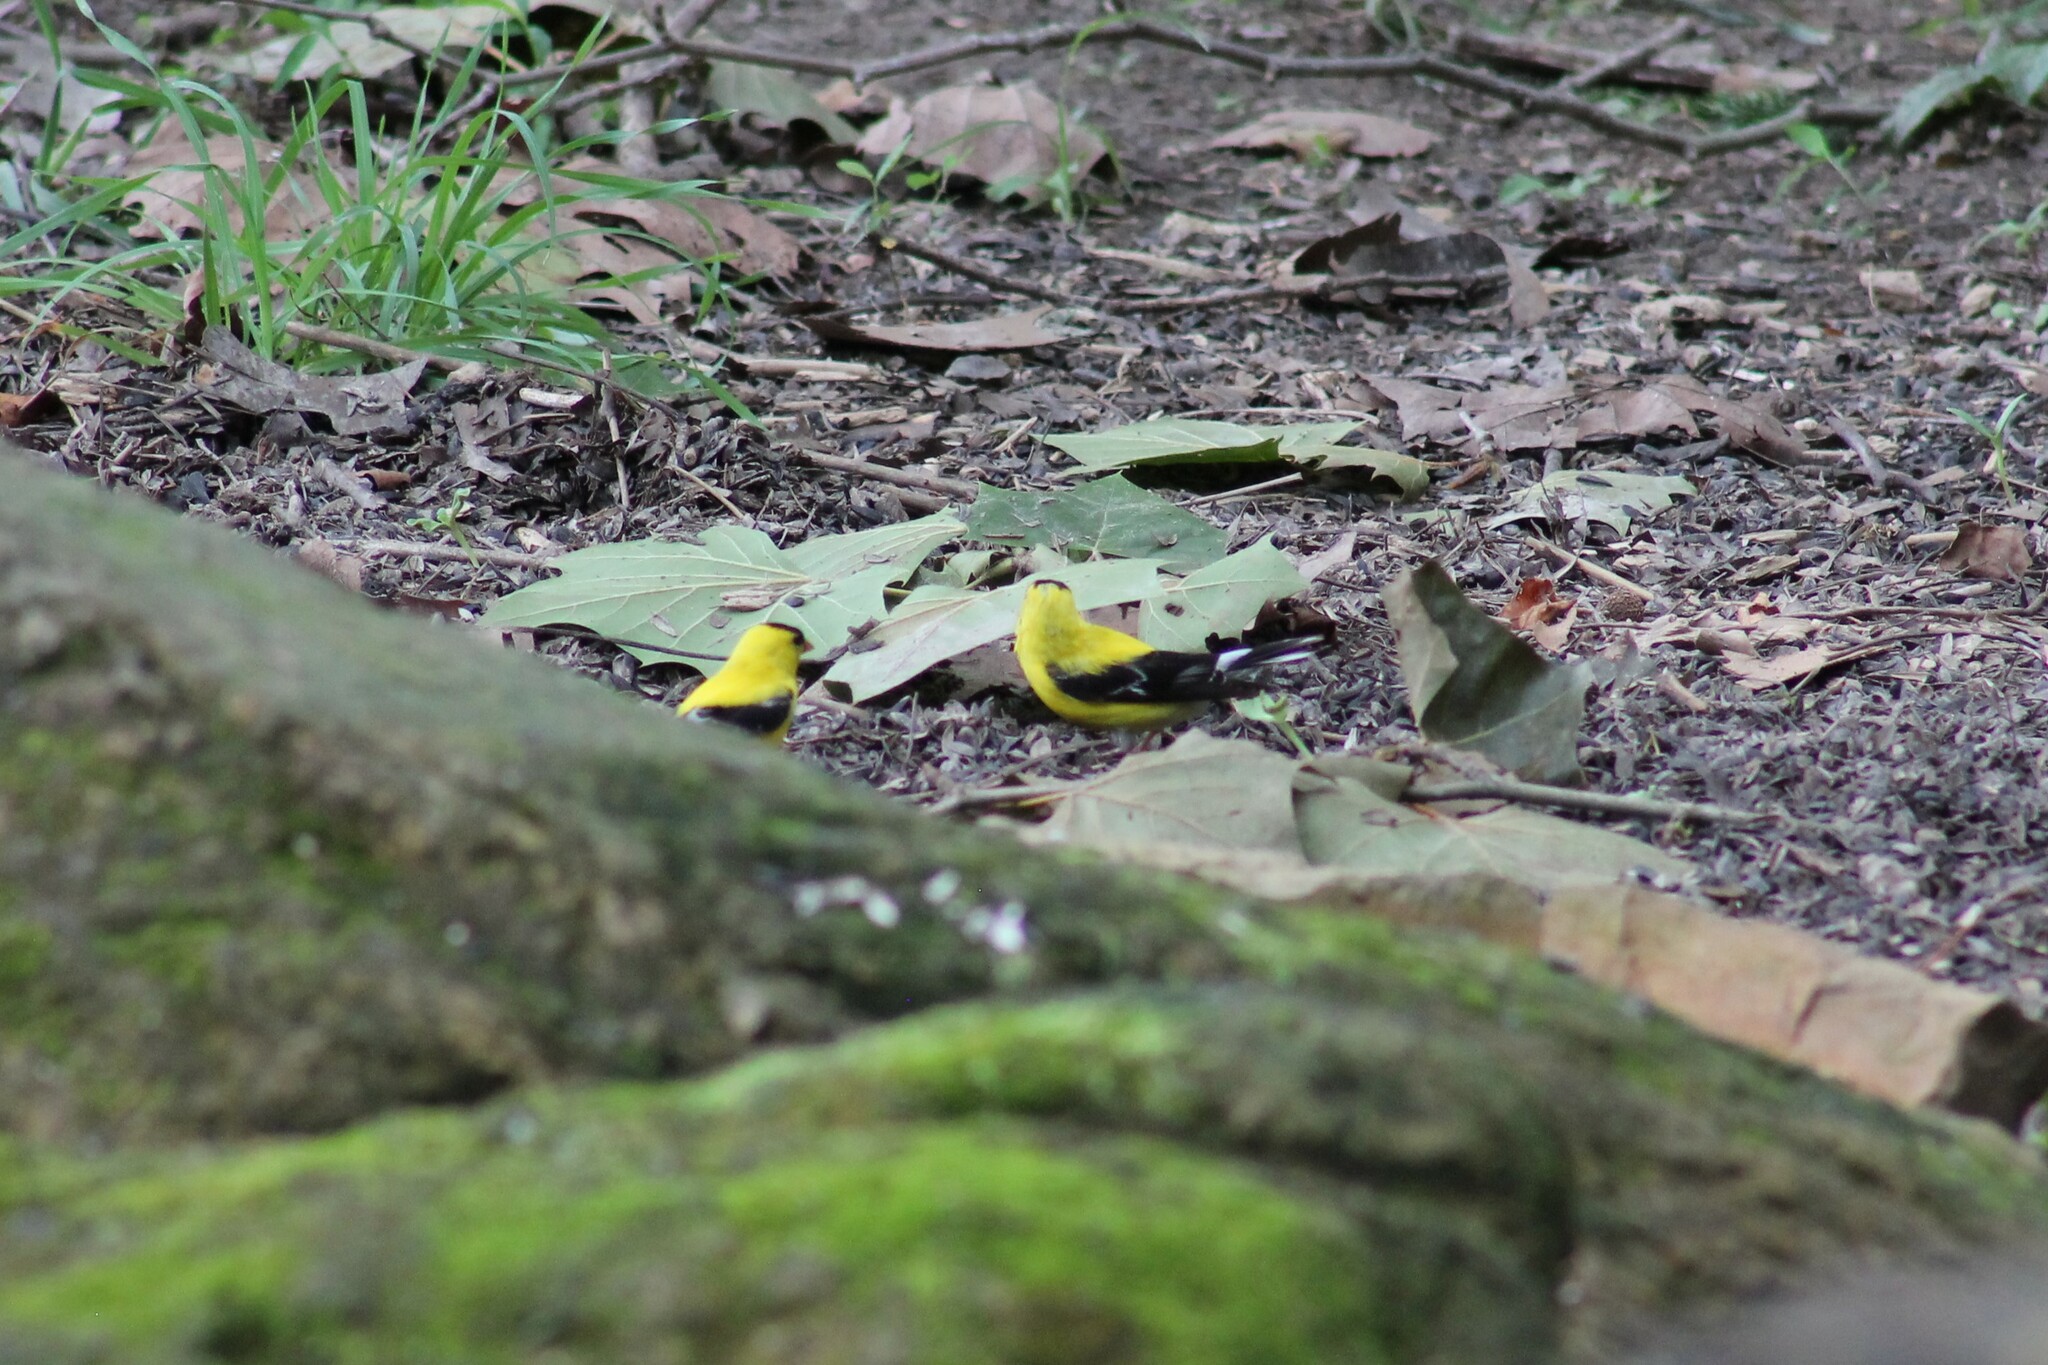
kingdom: Animalia
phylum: Chordata
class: Aves
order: Passeriformes
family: Fringillidae
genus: Spinus
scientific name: Spinus tristis
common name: American goldfinch
